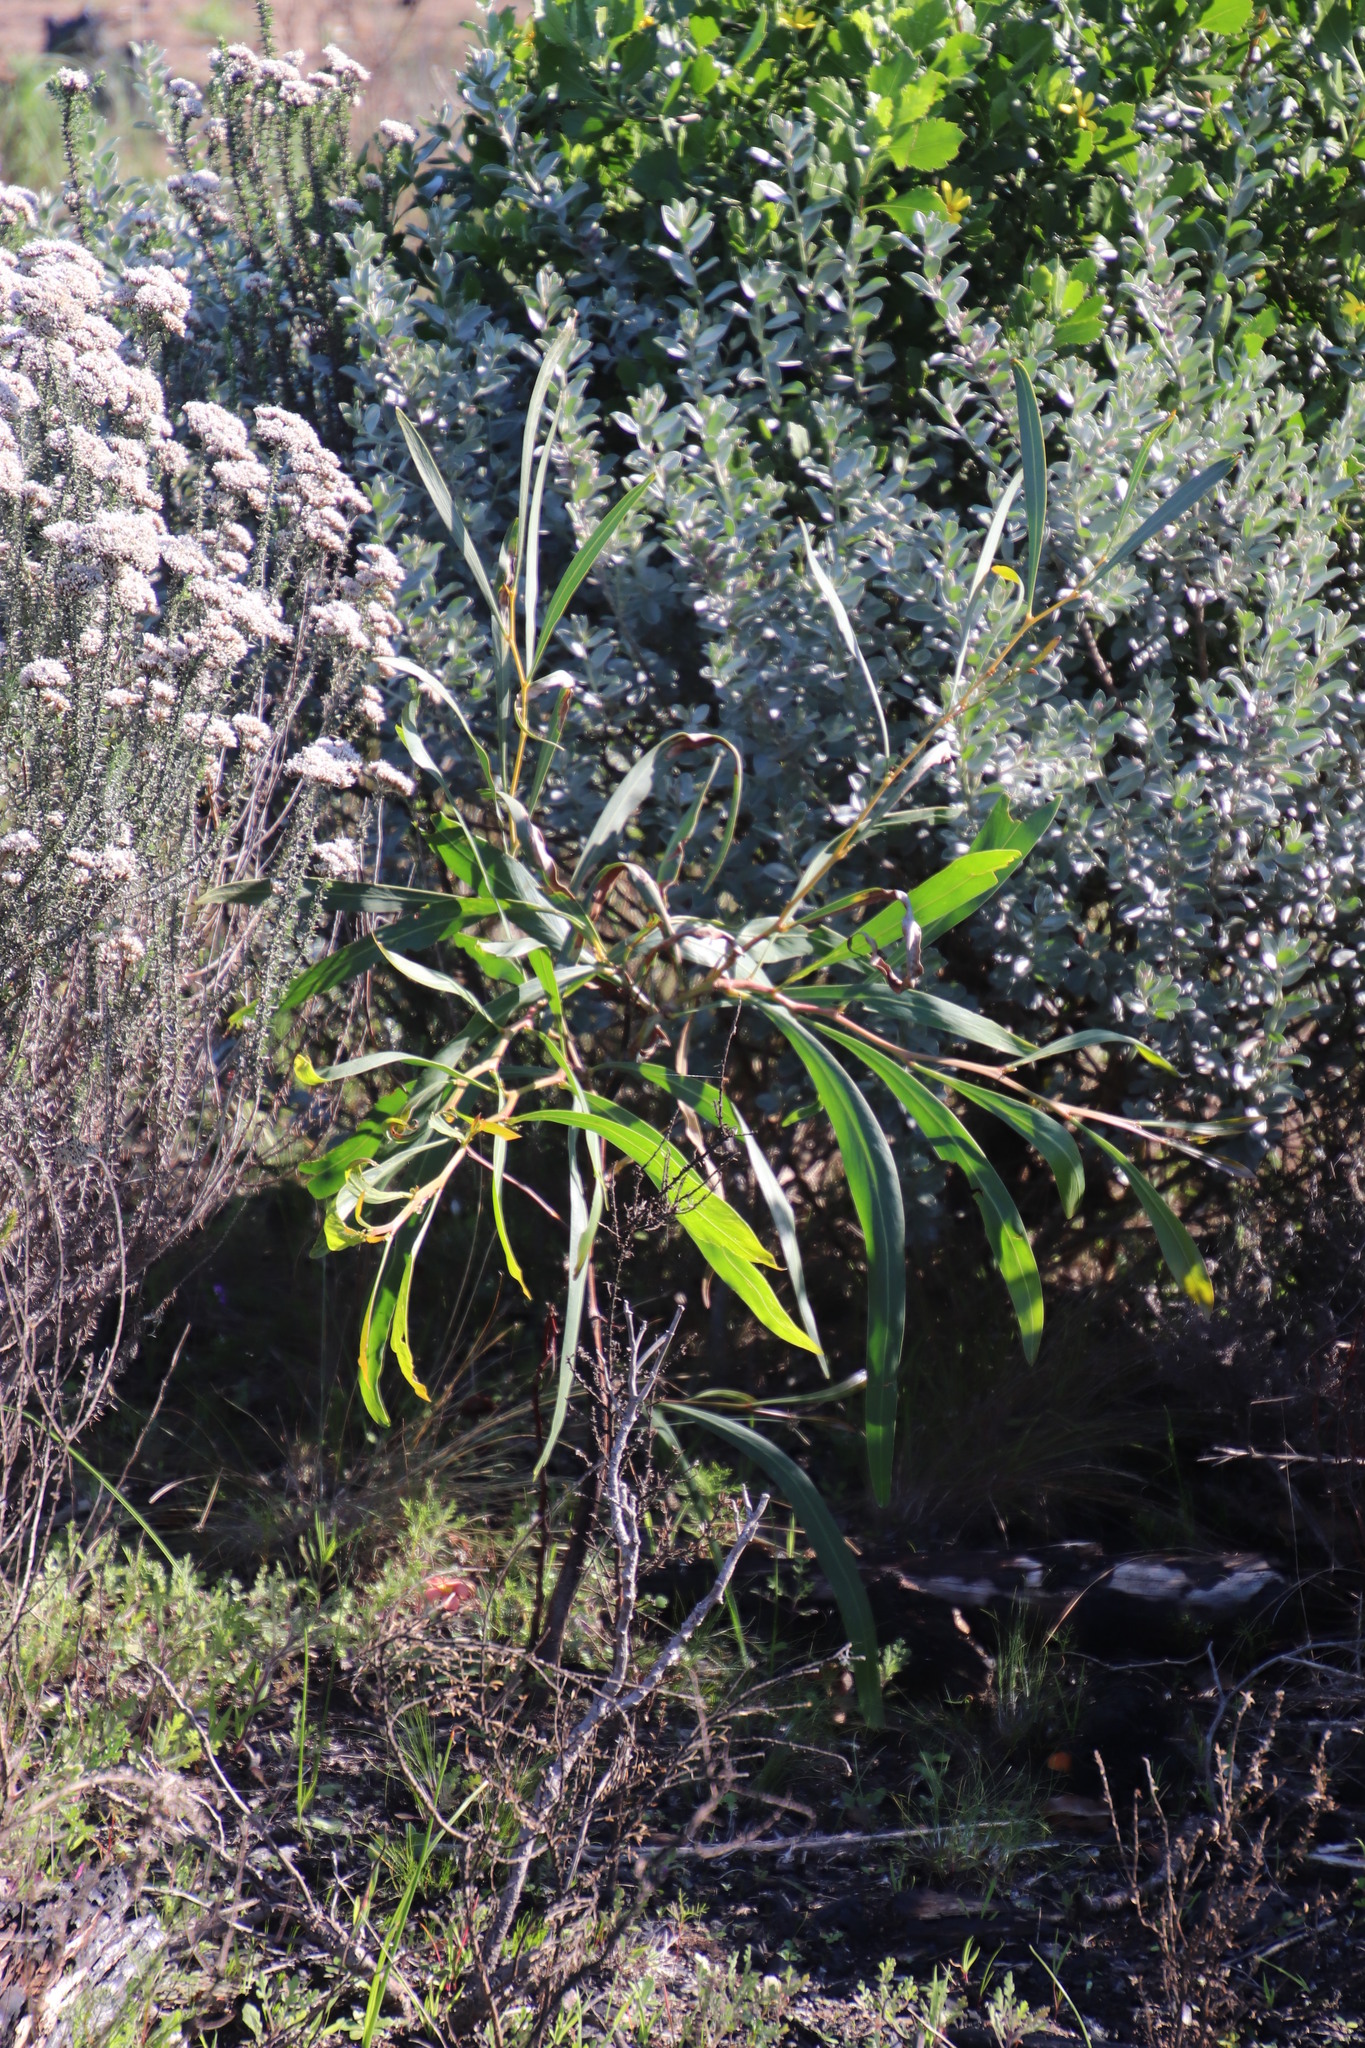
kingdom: Plantae
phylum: Tracheophyta
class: Magnoliopsida
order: Fabales
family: Fabaceae
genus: Acacia
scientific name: Acacia saligna
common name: Orange wattle
